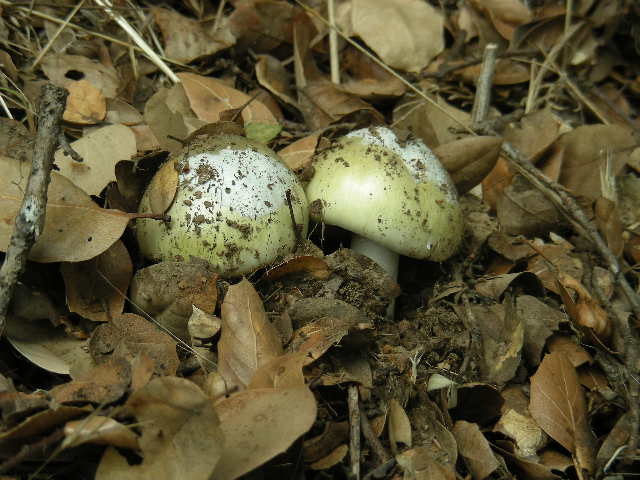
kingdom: Fungi
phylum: Basidiomycota
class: Agaricomycetes
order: Agaricales
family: Amanitaceae
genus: Amanita
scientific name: Amanita phalloides
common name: Death cap
